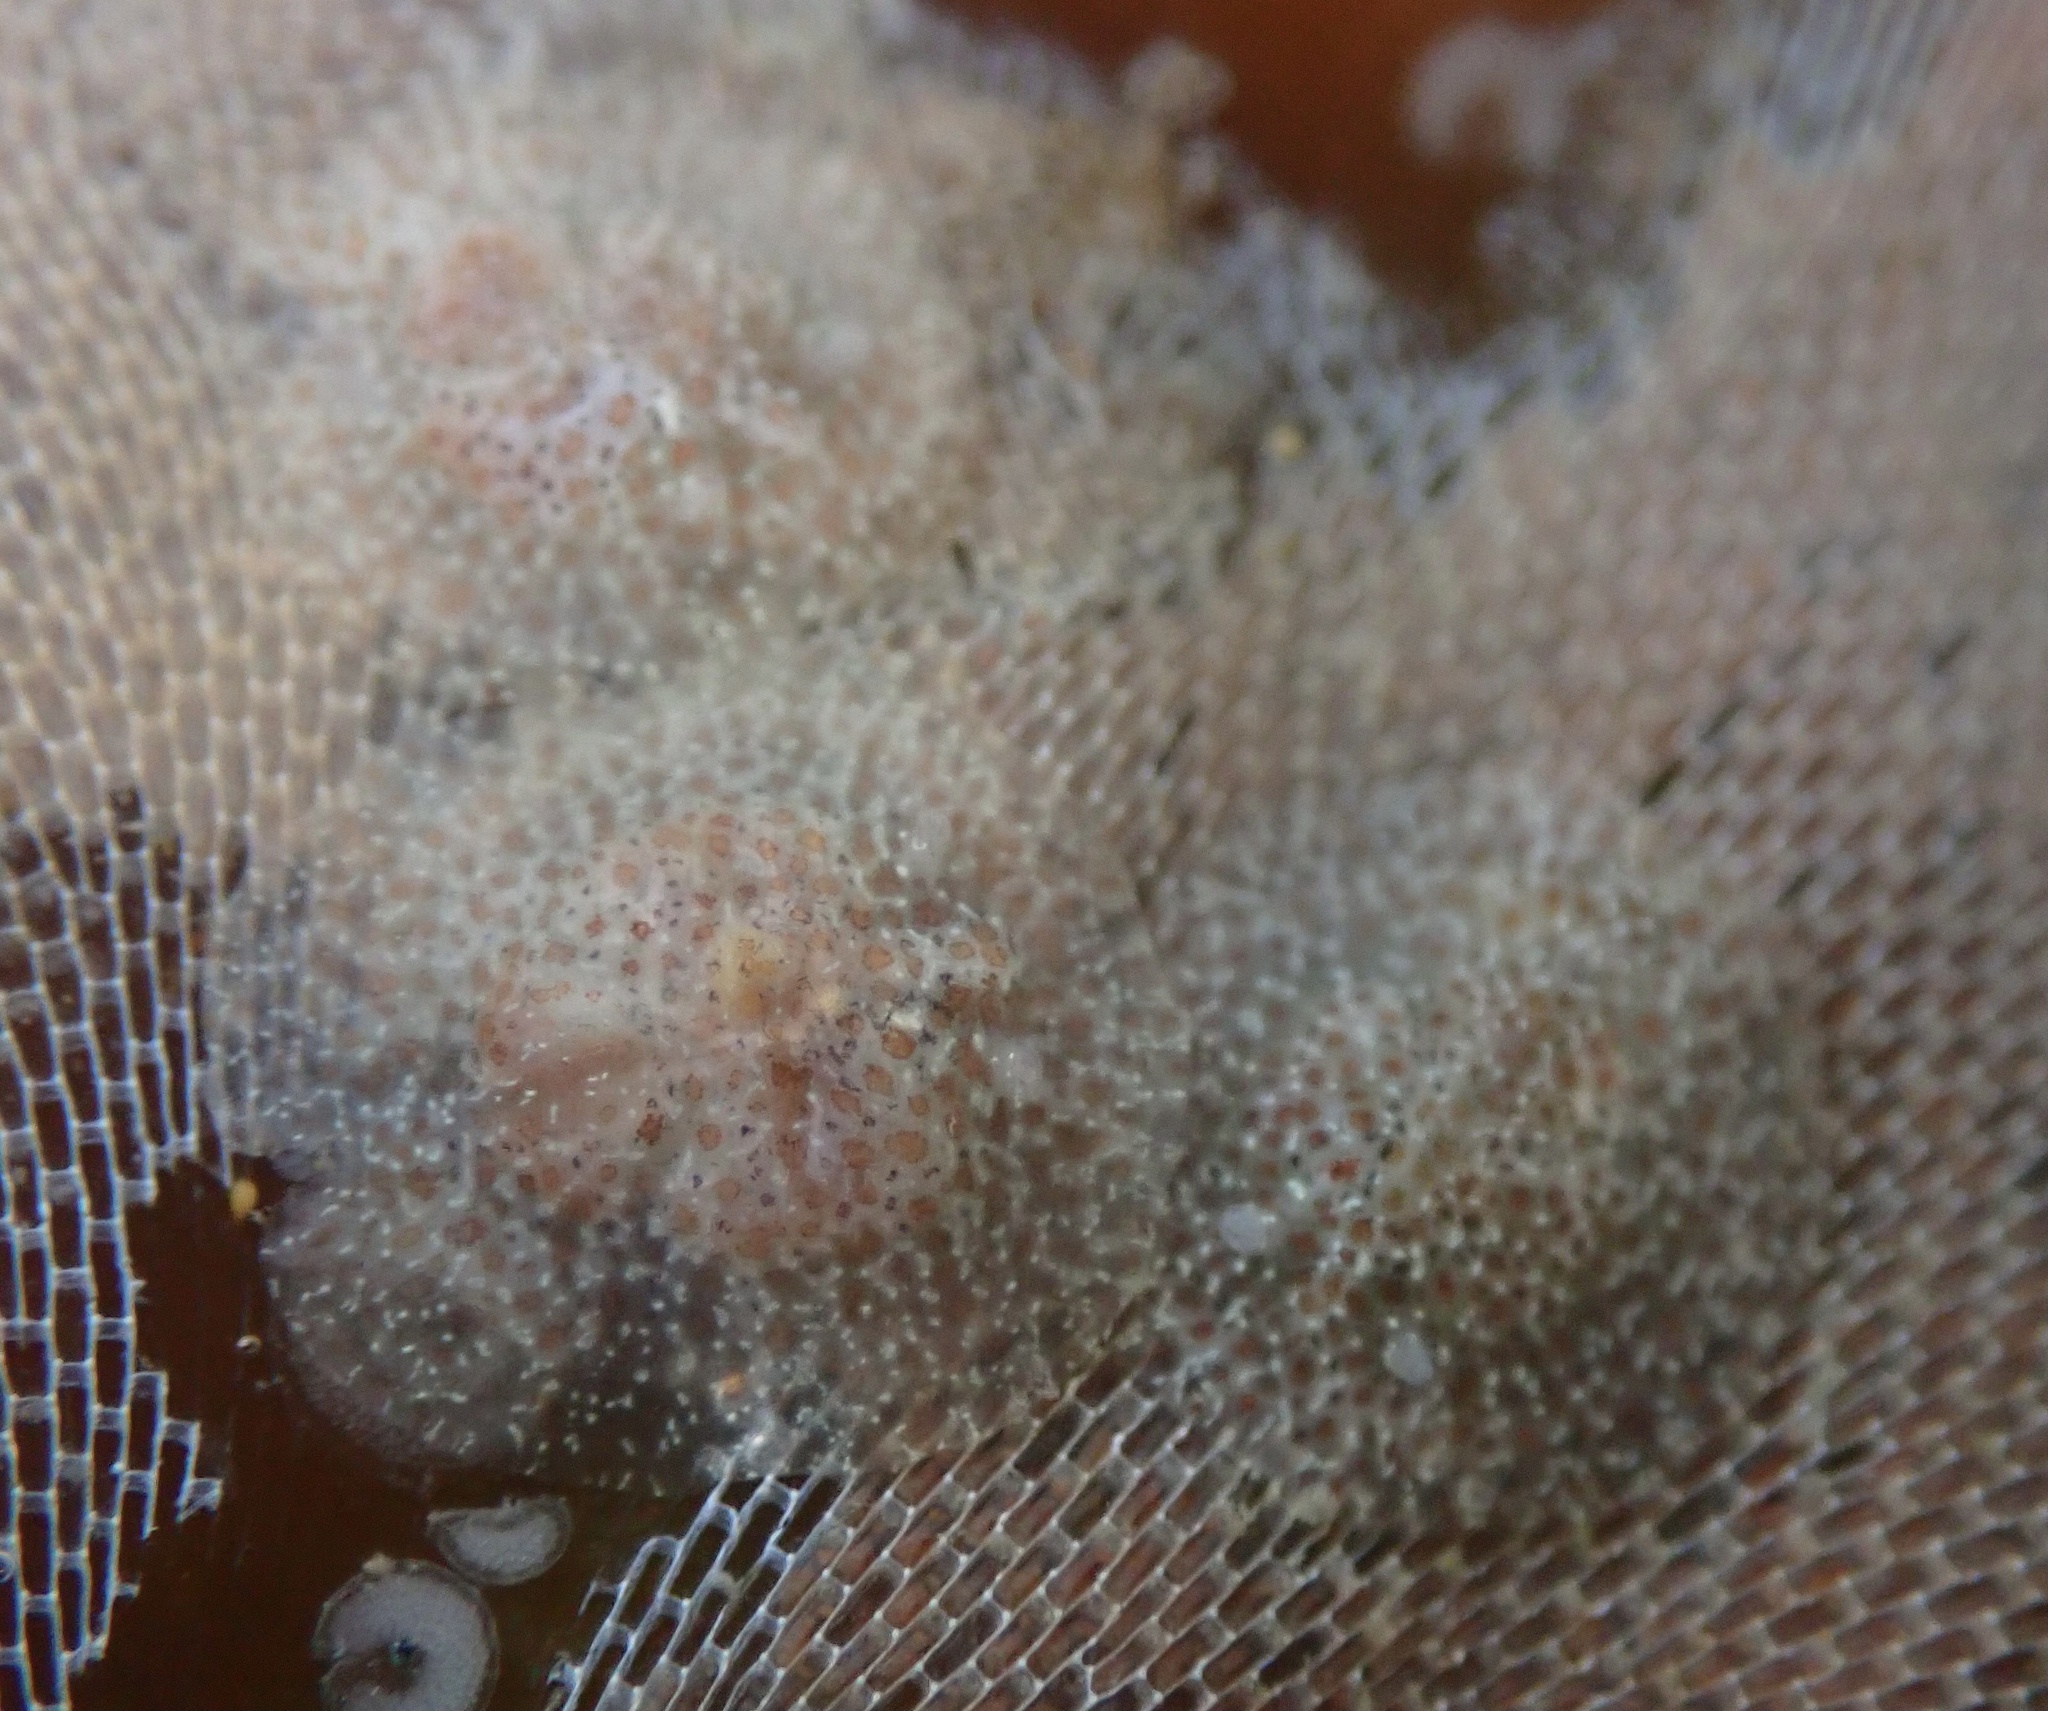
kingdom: Animalia
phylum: Mollusca
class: Gastropoda
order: Nudibranchia
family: Corambidae
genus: Corambe
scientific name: Corambe pacifica
